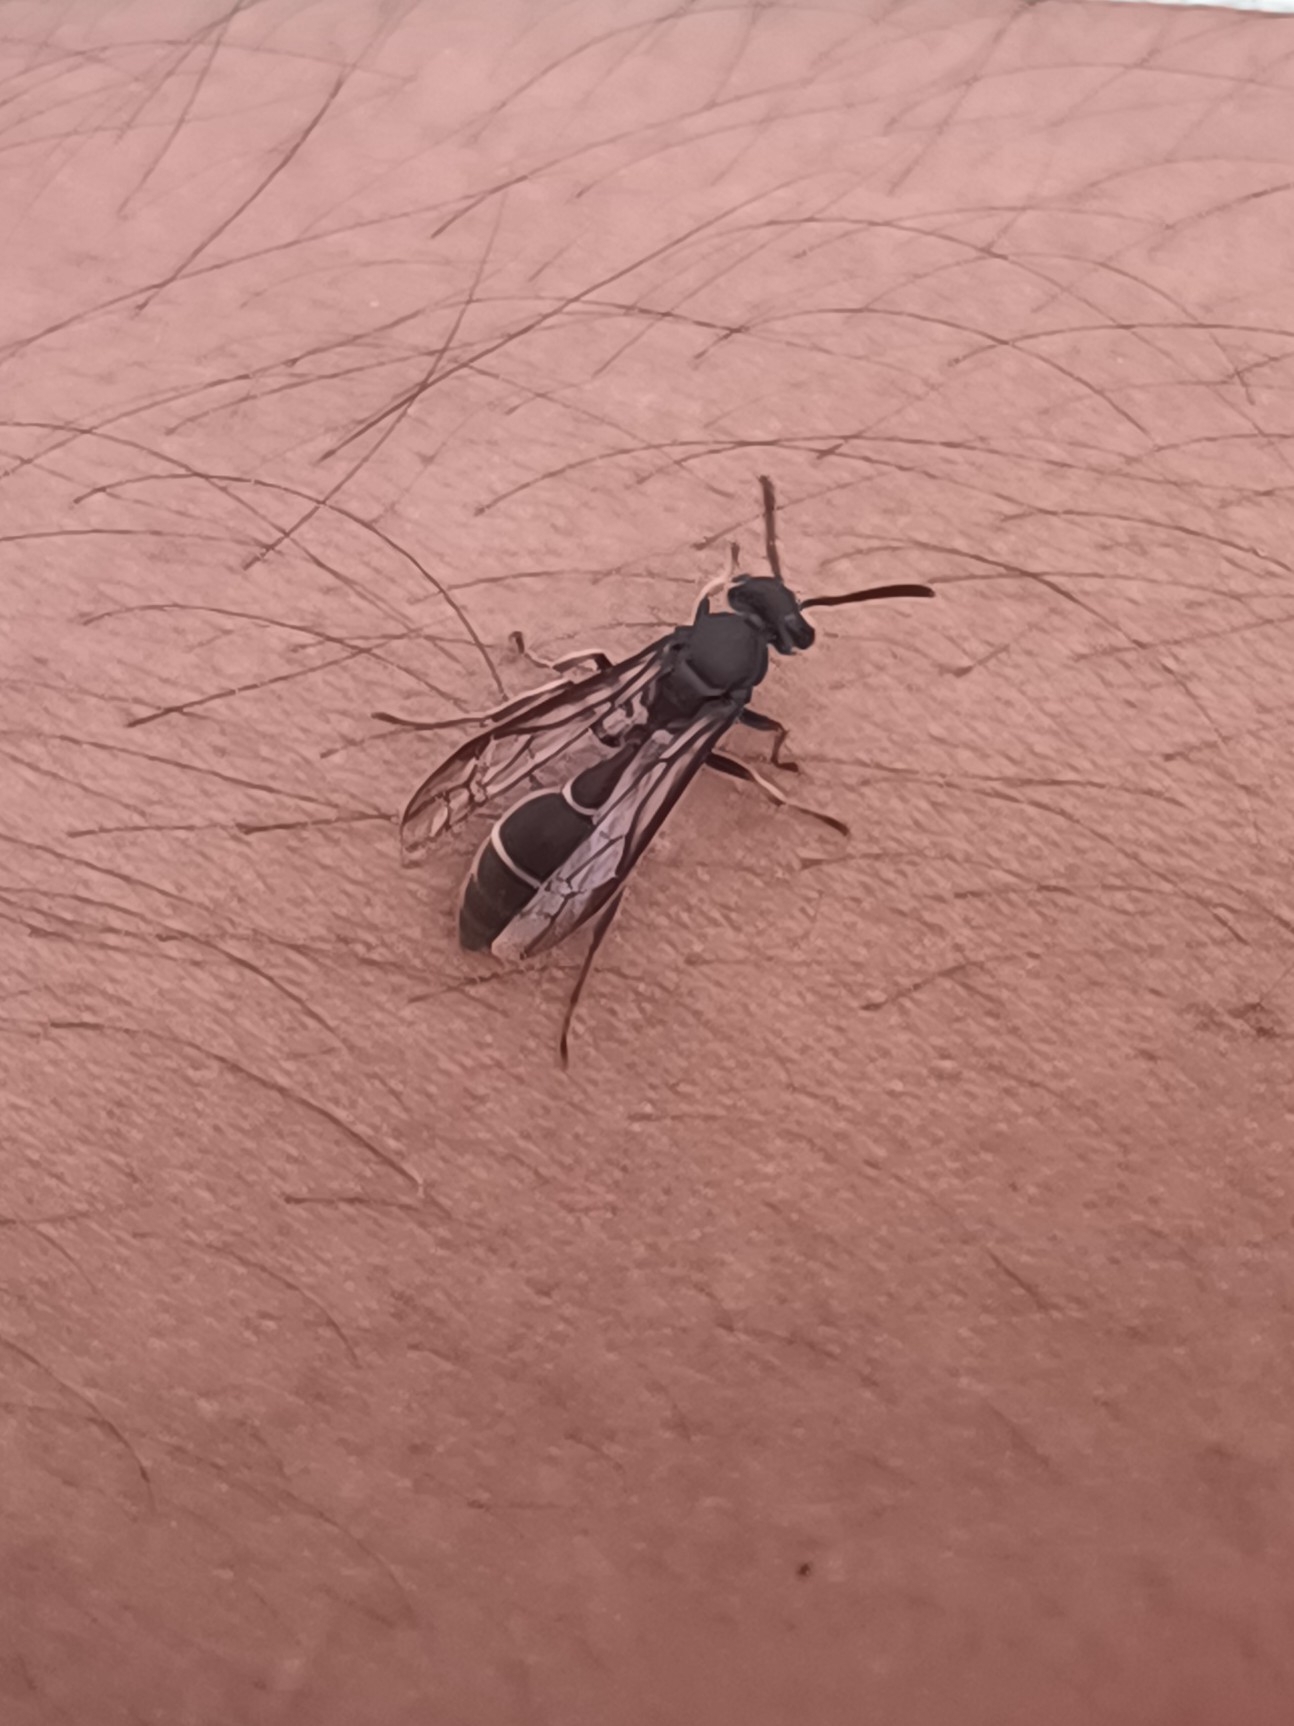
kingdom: Animalia
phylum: Arthropoda
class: Insecta
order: Hymenoptera
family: Eumenidae
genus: Polybia
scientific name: Polybia plebeja
